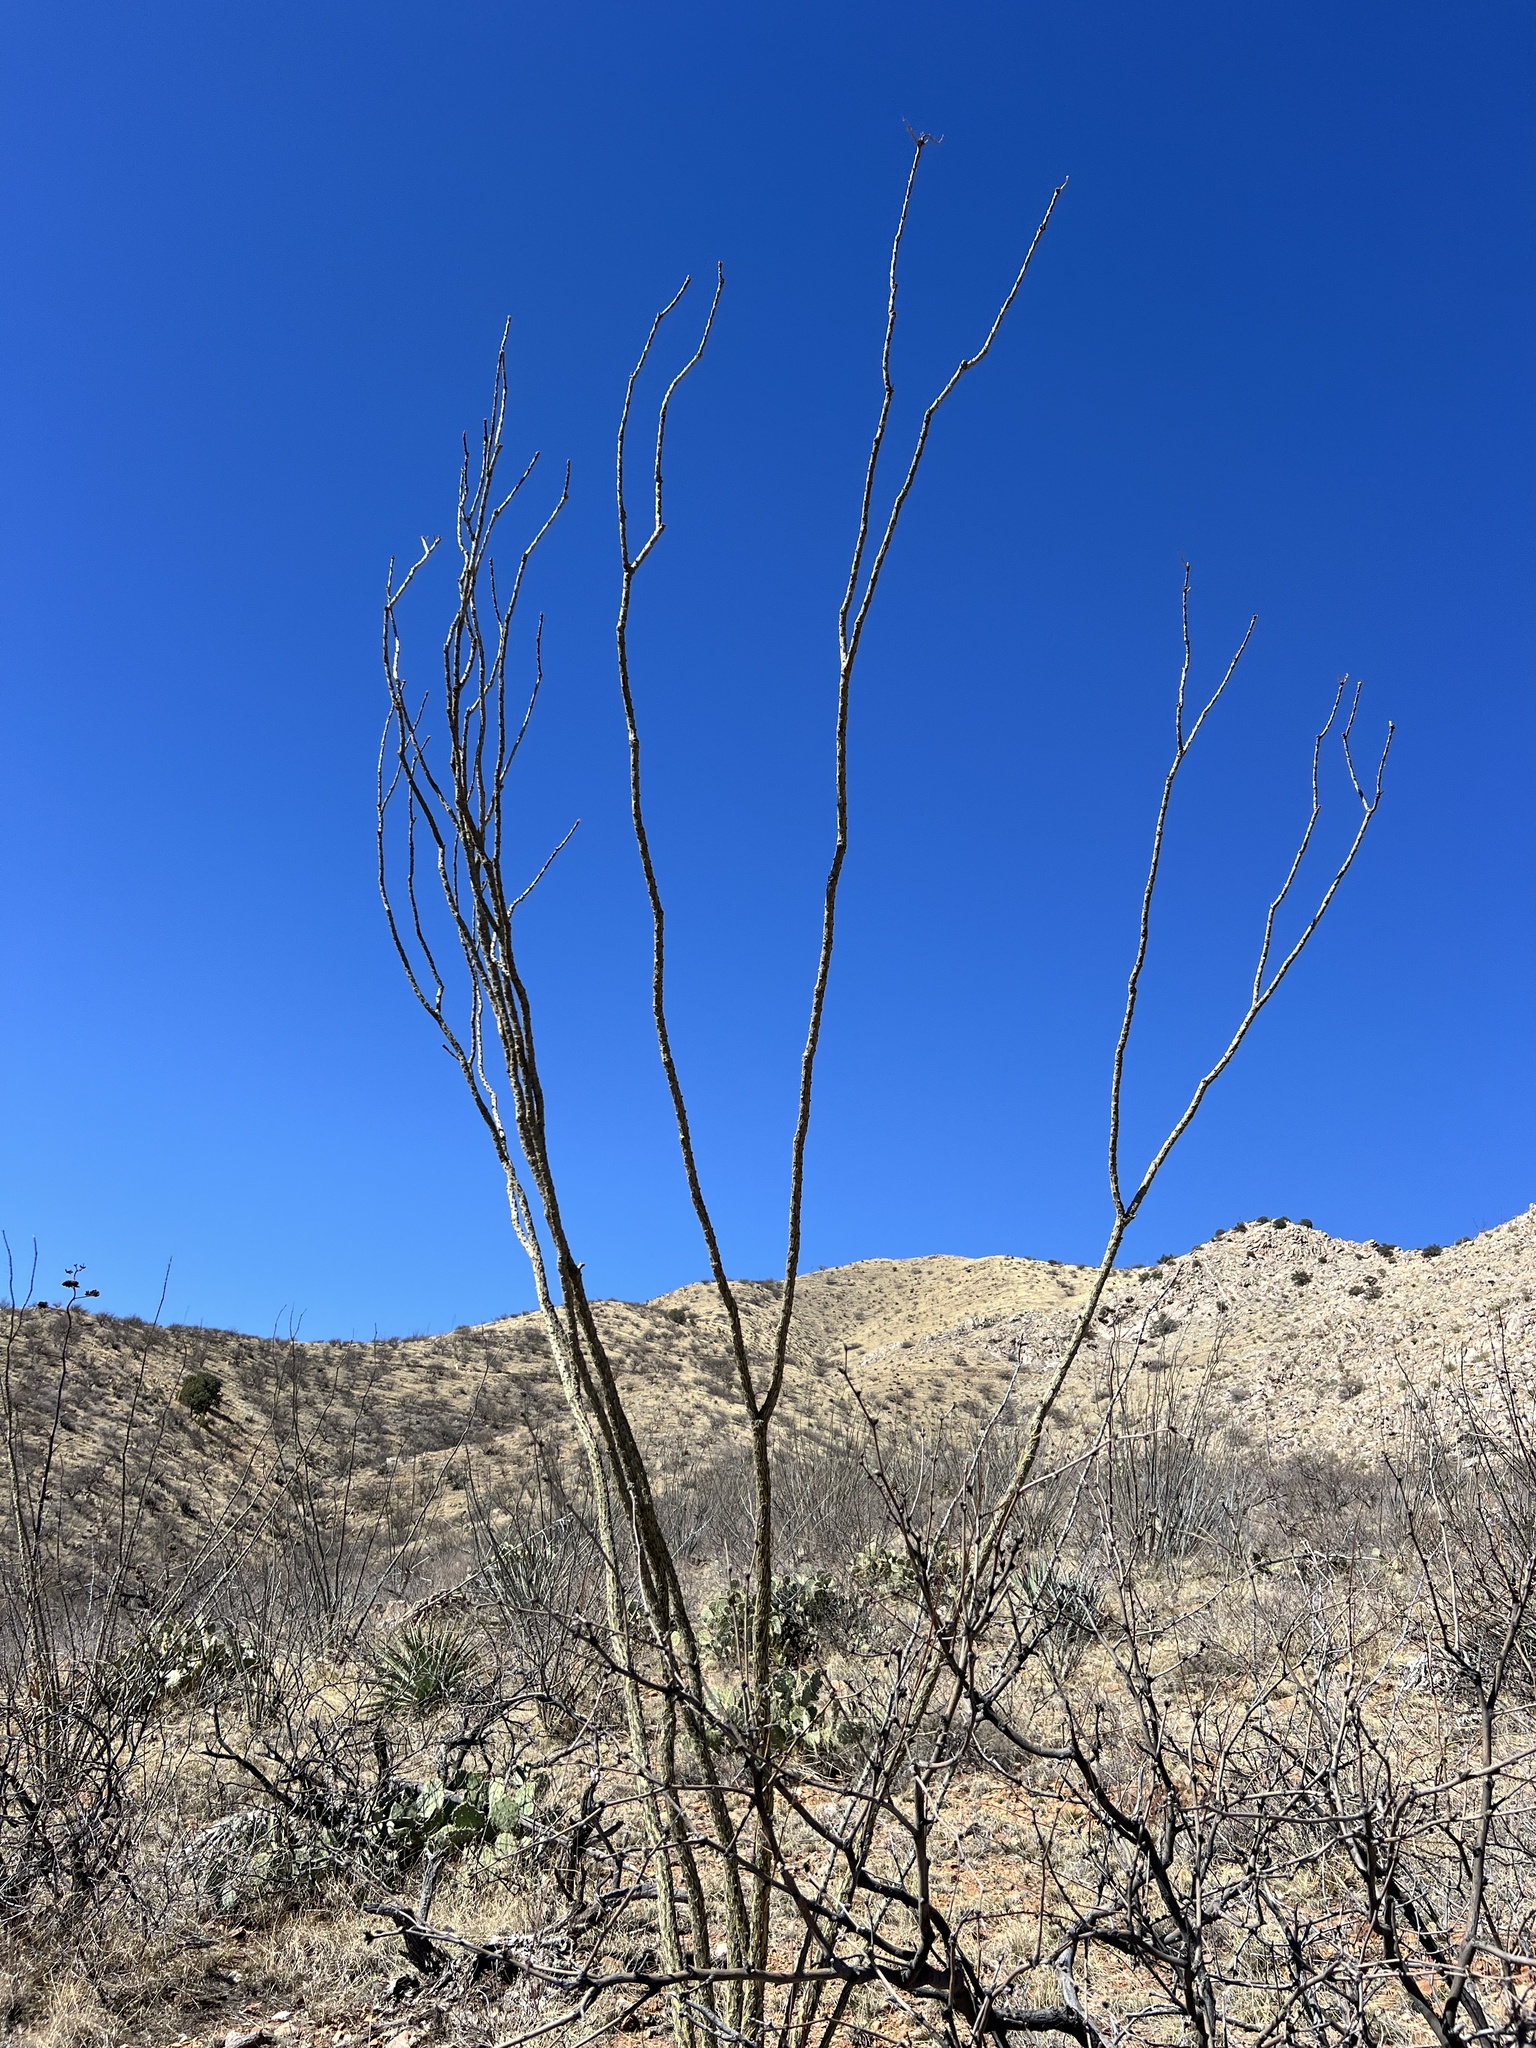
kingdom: Plantae
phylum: Tracheophyta
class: Magnoliopsida
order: Ericales
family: Fouquieriaceae
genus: Fouquieria
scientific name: Fouquieria splendens
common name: Vine-cactus
